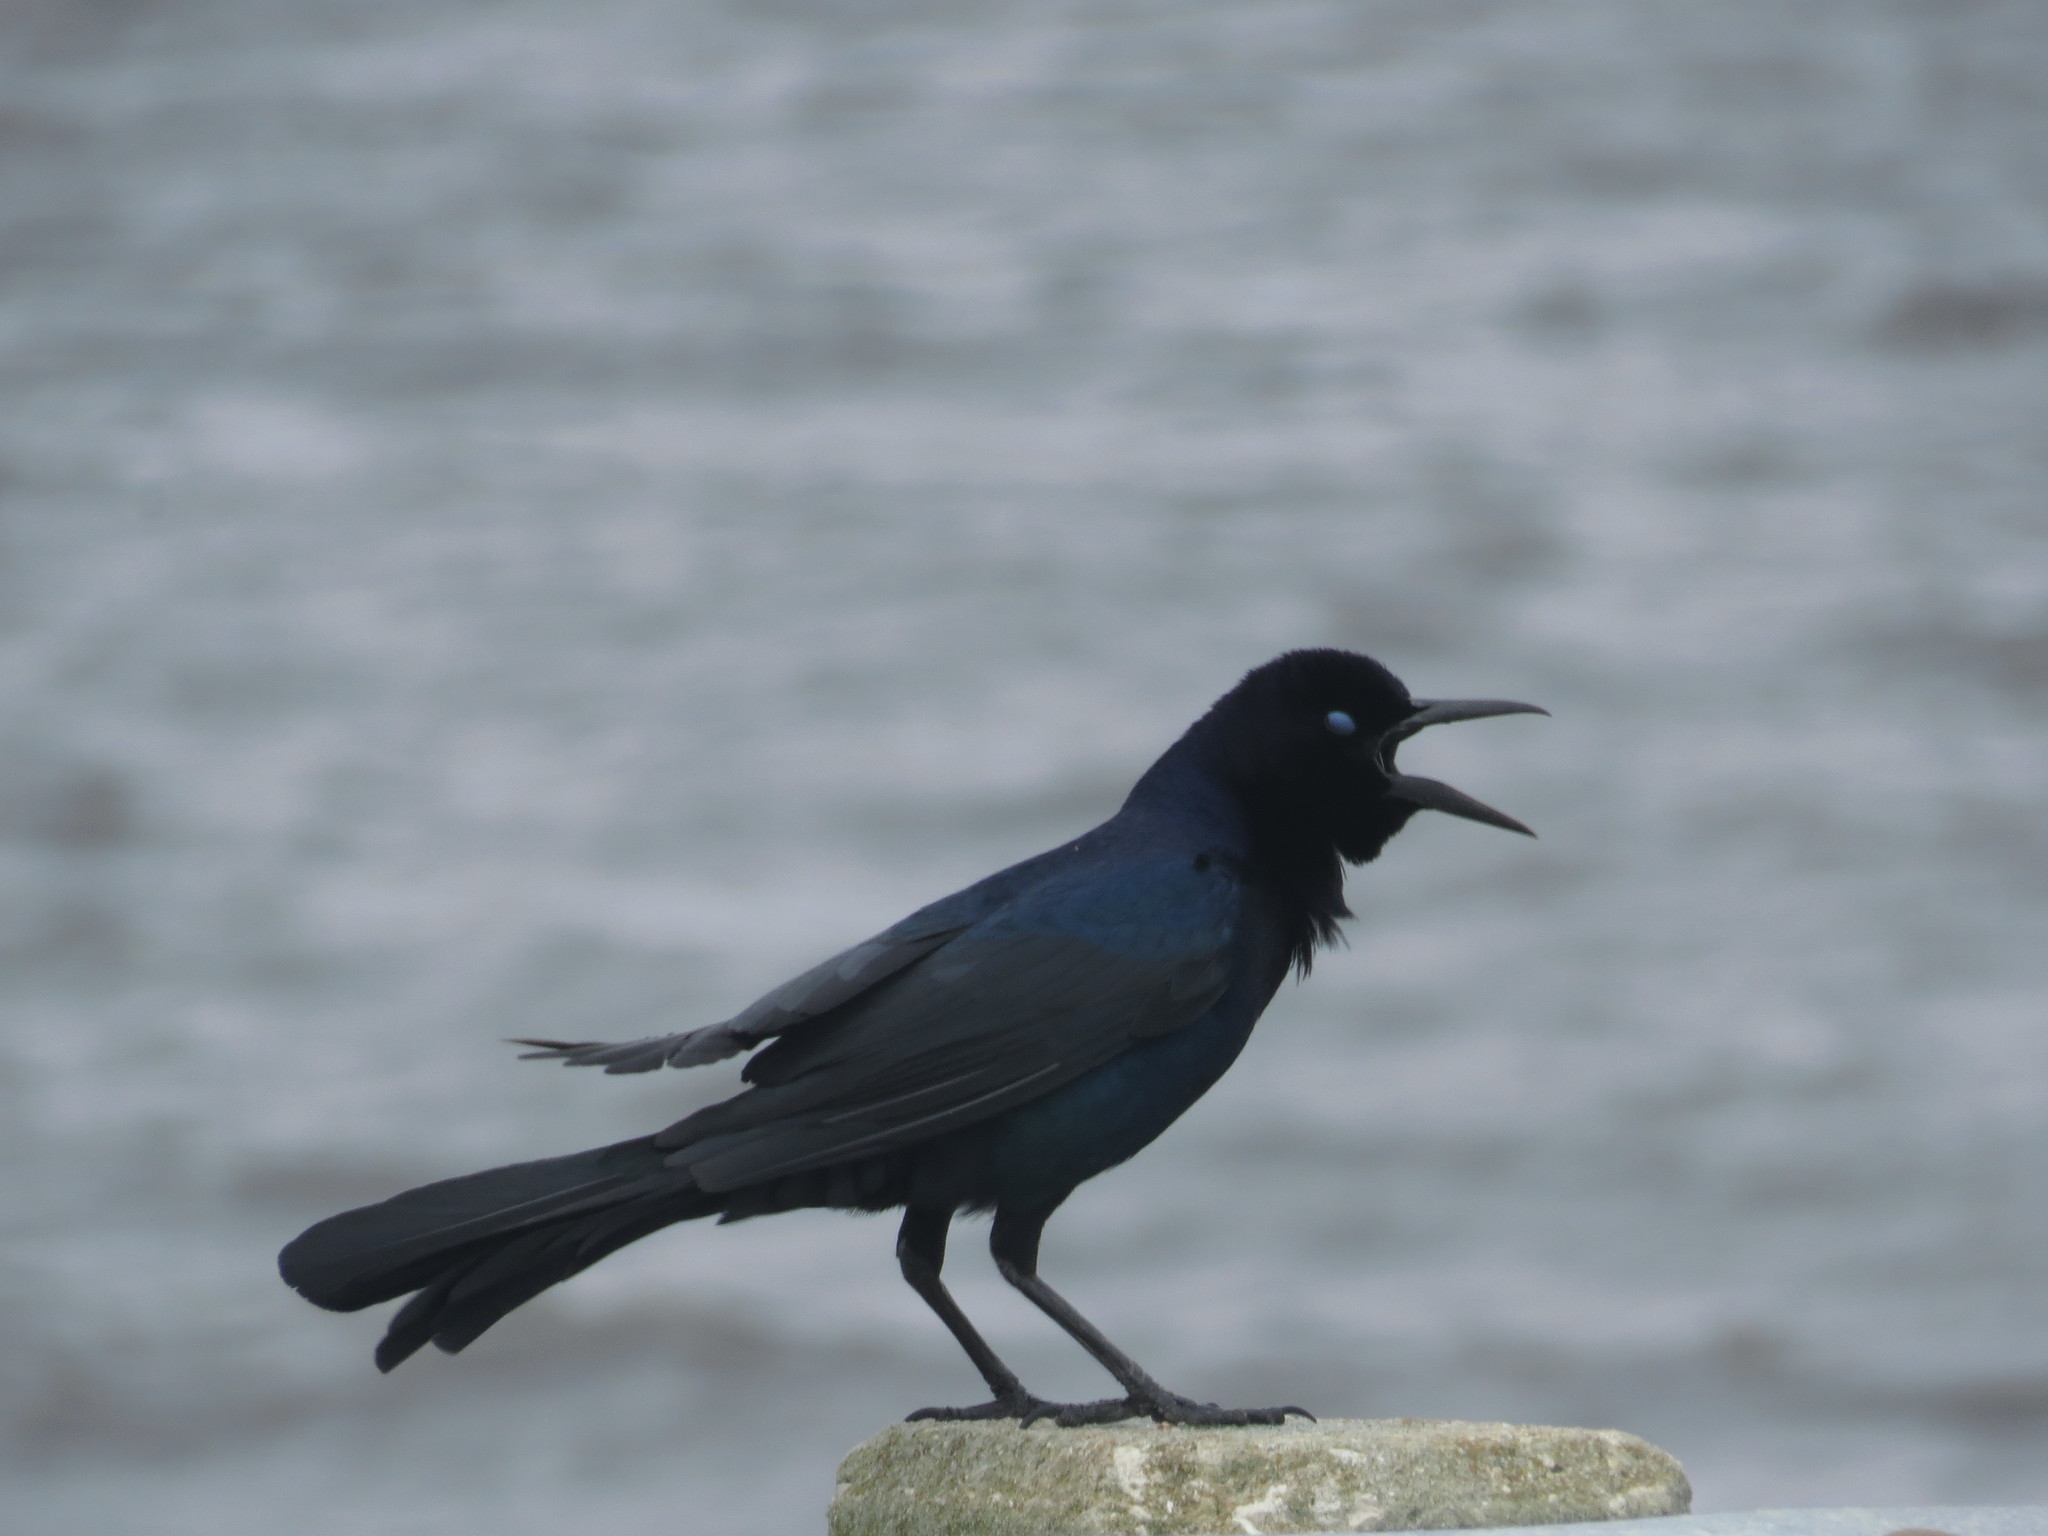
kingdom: Animalia
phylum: Chordata
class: Aves
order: Passeriformes
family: Icteridae
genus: Quiscalus
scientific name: Quiscalus major
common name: Boat-tailed grackle
